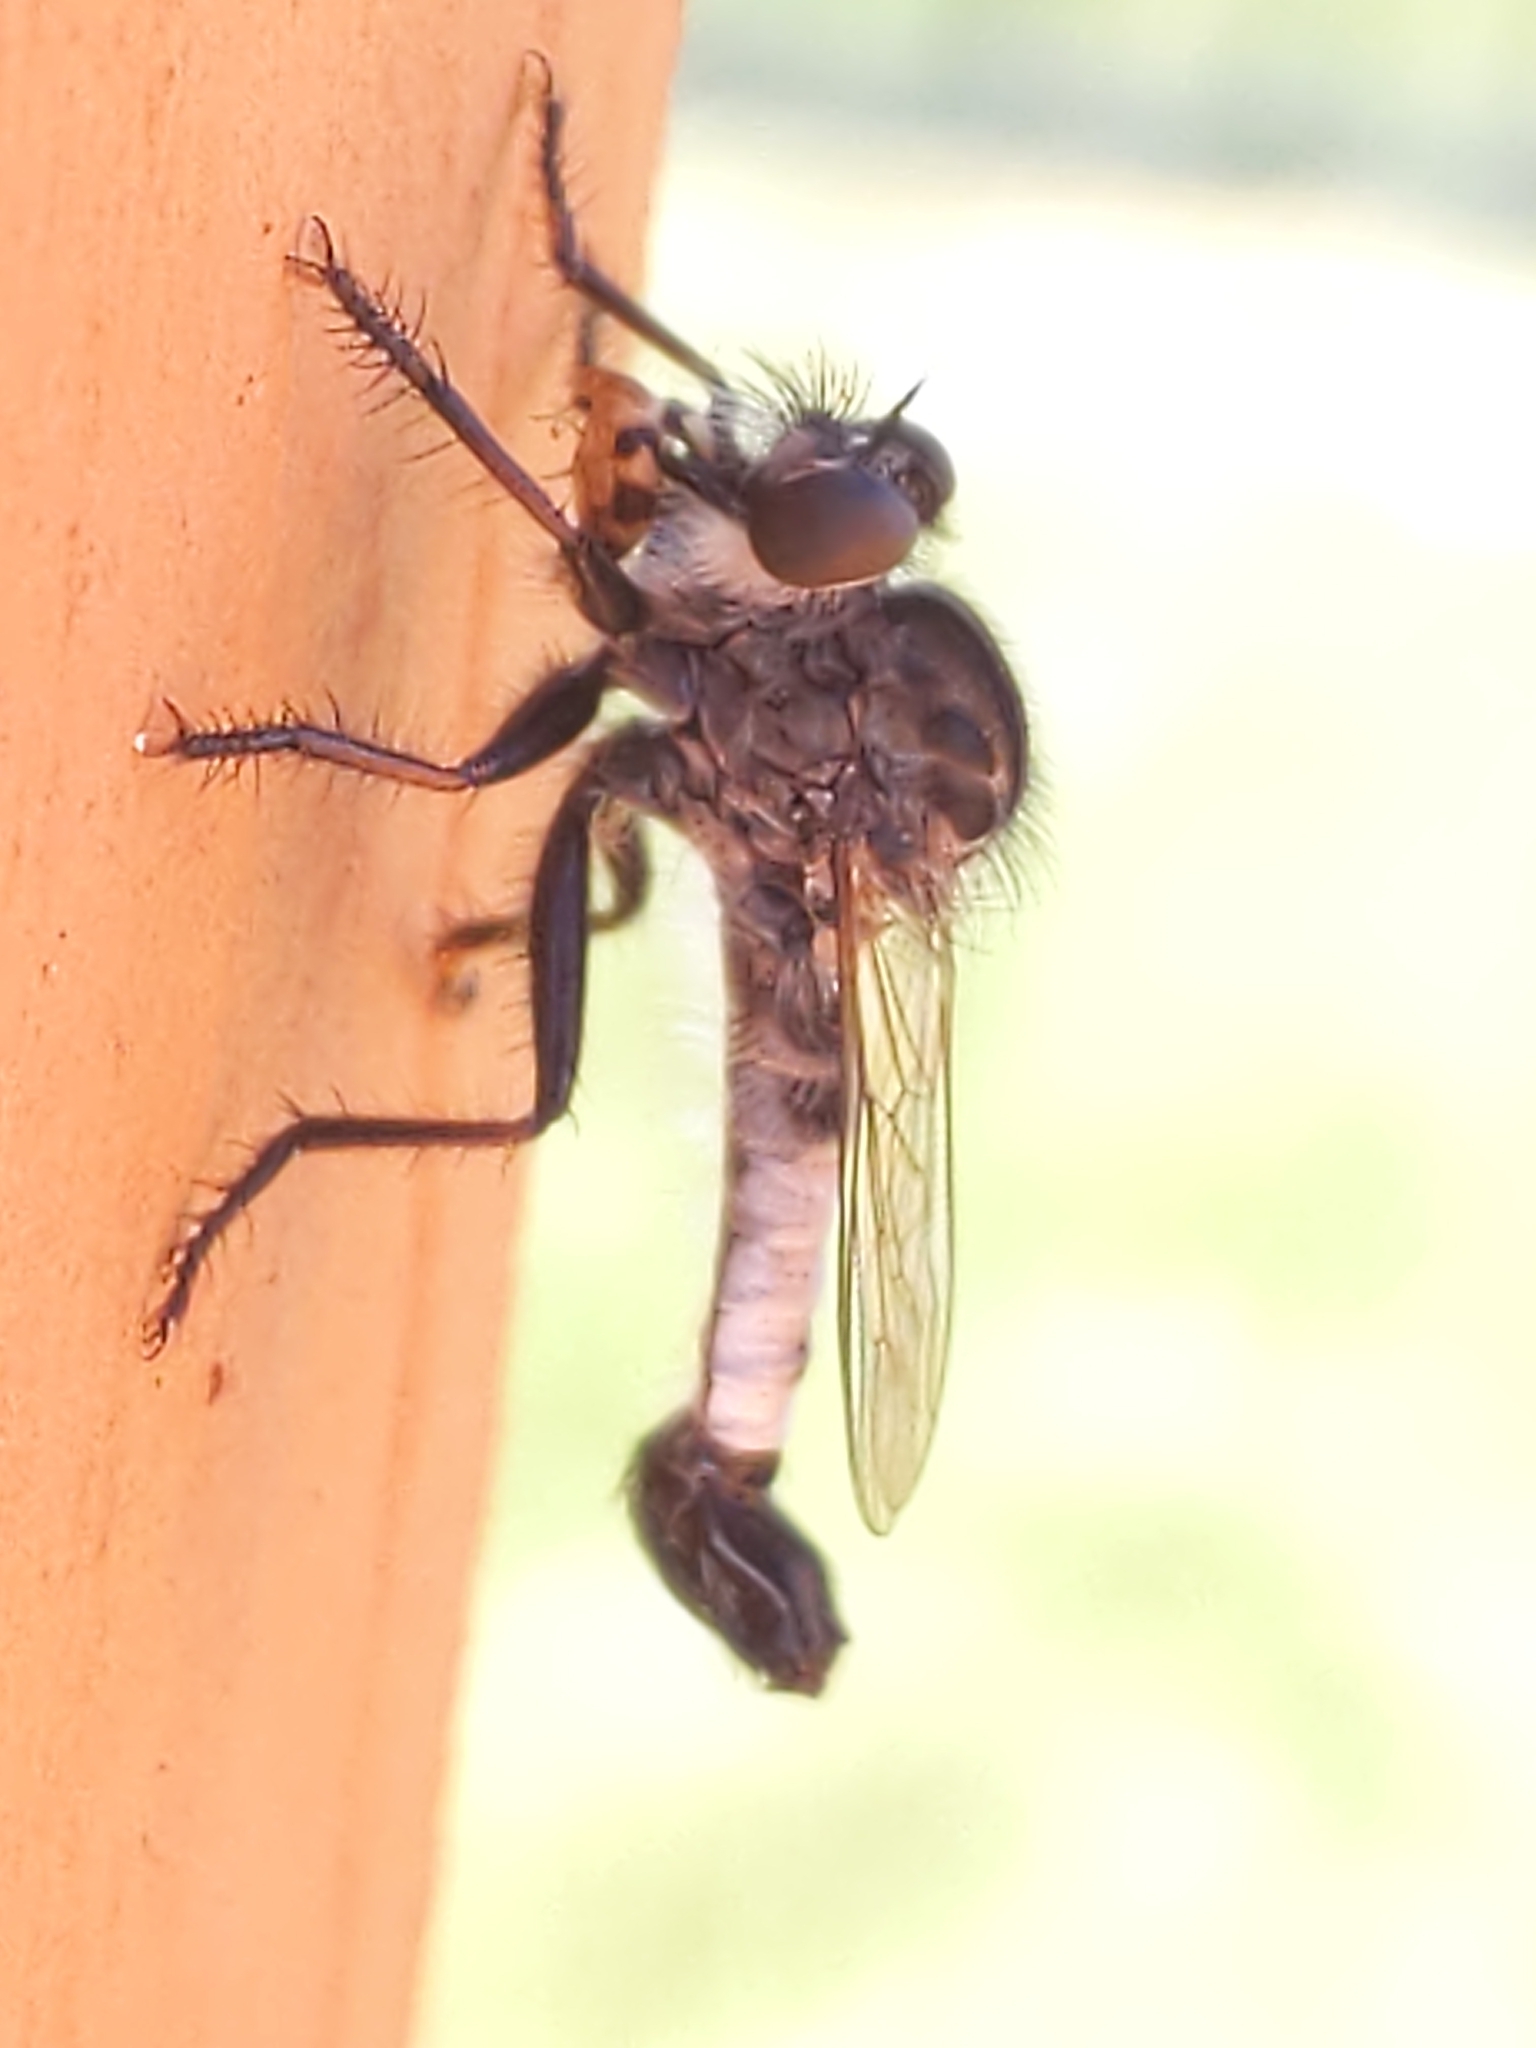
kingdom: Animalia
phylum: Arthropoda
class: Insecta
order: Diptera
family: Asilidae
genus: Efferia
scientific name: Efferia
